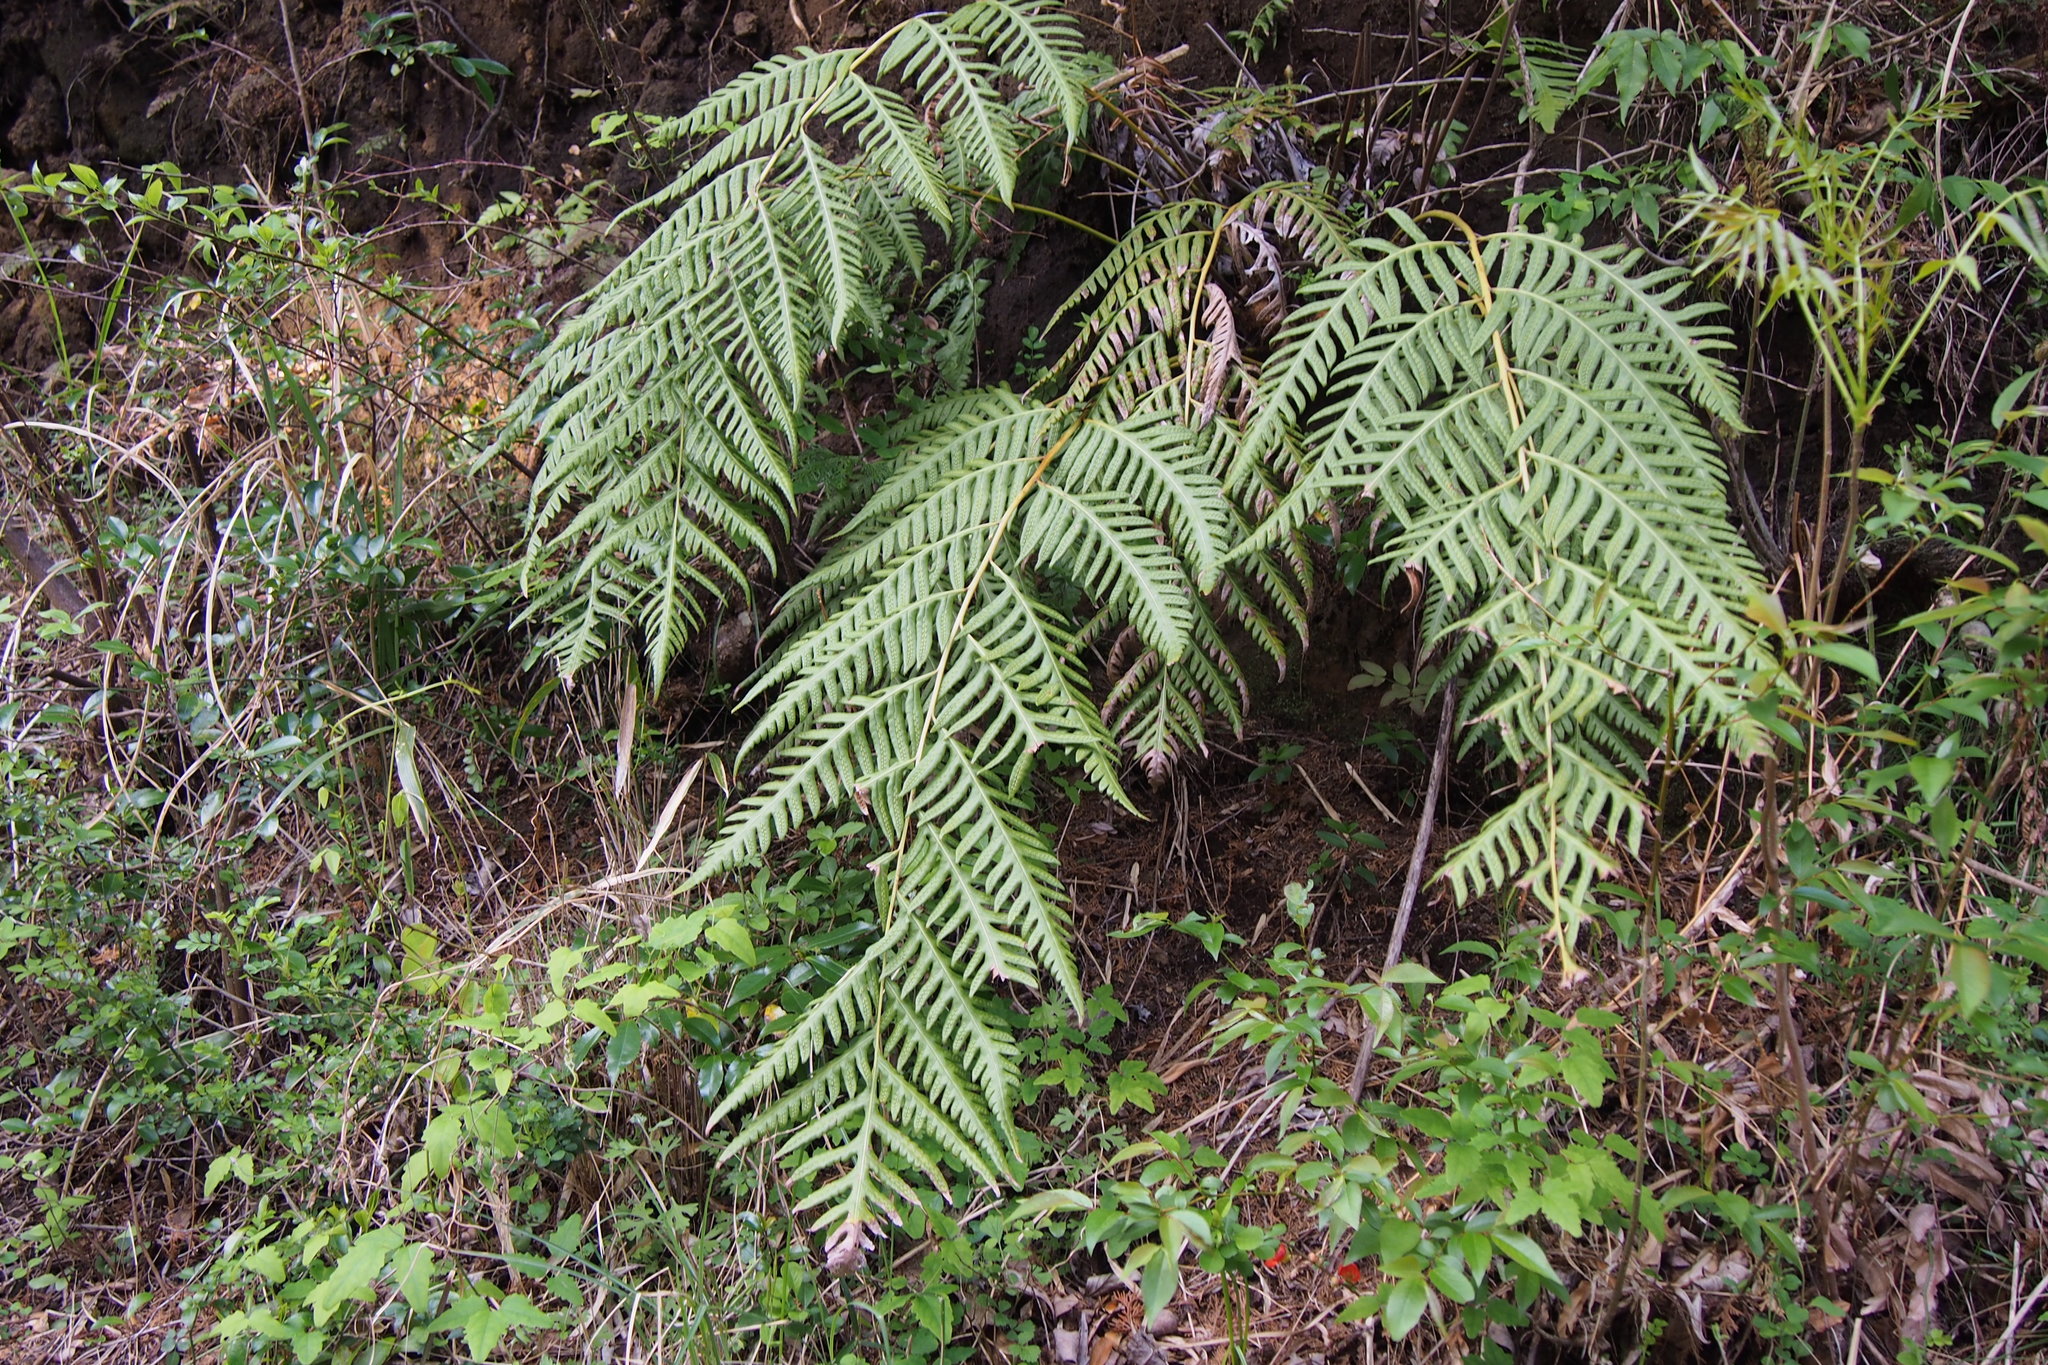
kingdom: Plantae
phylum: Tracheophyta
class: Polypodiopsida
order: Polypodiales
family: Blechnaceae
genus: Woodwardia
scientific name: Woodwardia orientalis
